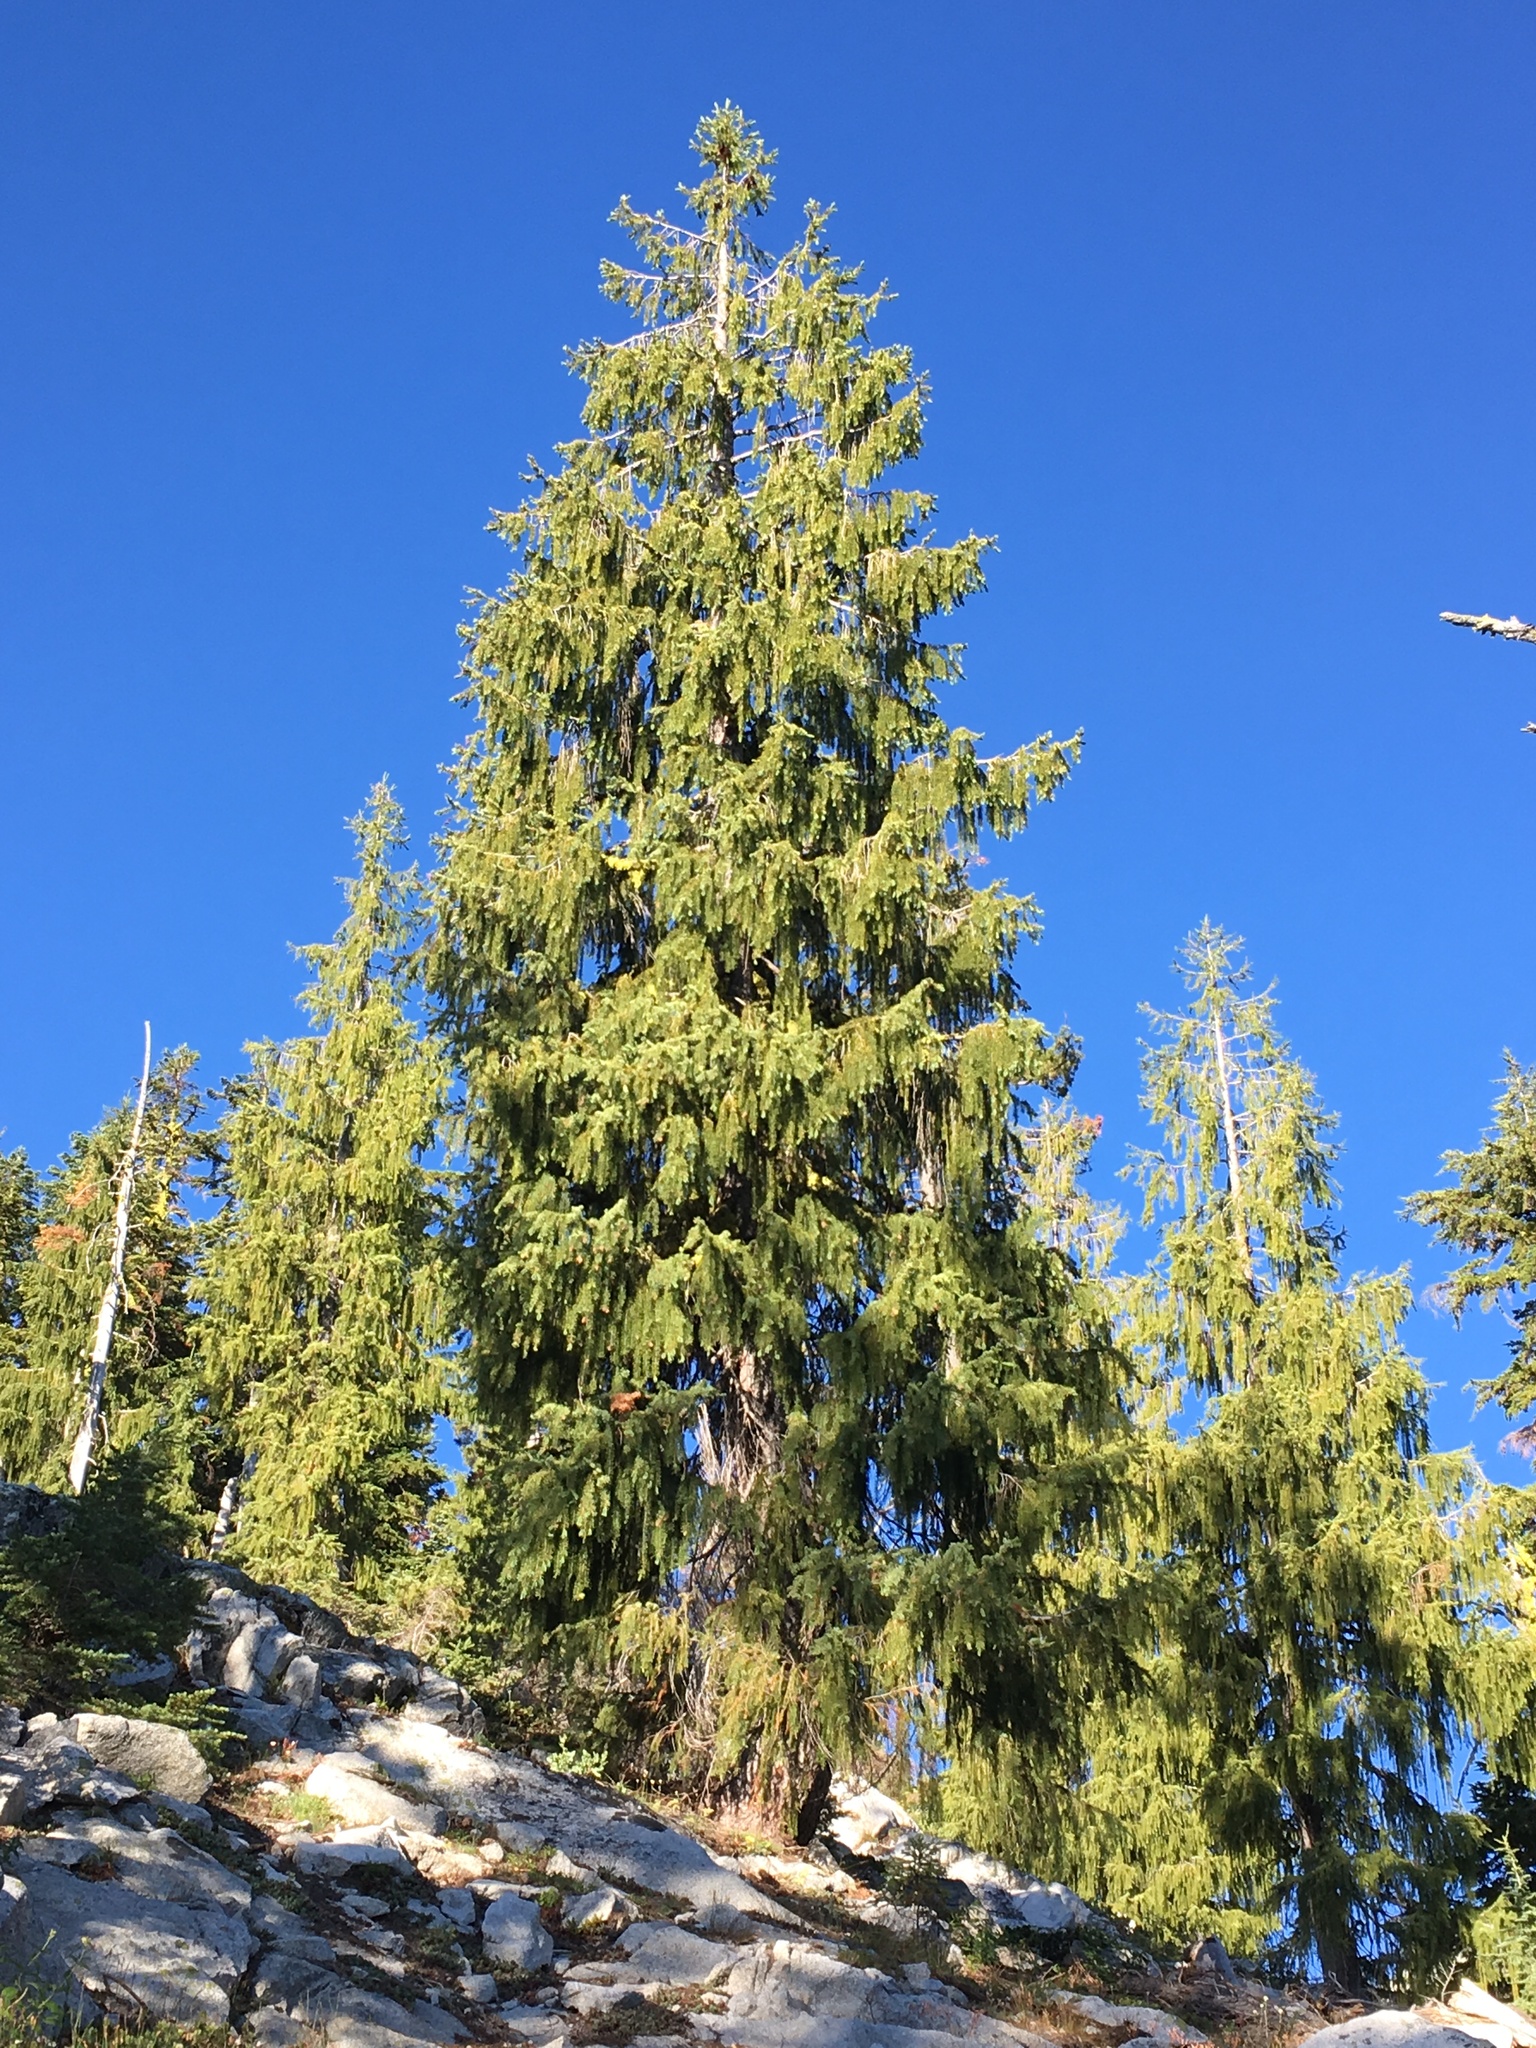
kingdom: Plantae
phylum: Tracheophyta
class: Pinopsida
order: Pinales
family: Pinaceae
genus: Picea
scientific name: Picea breweriana
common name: Brewer's spruce
